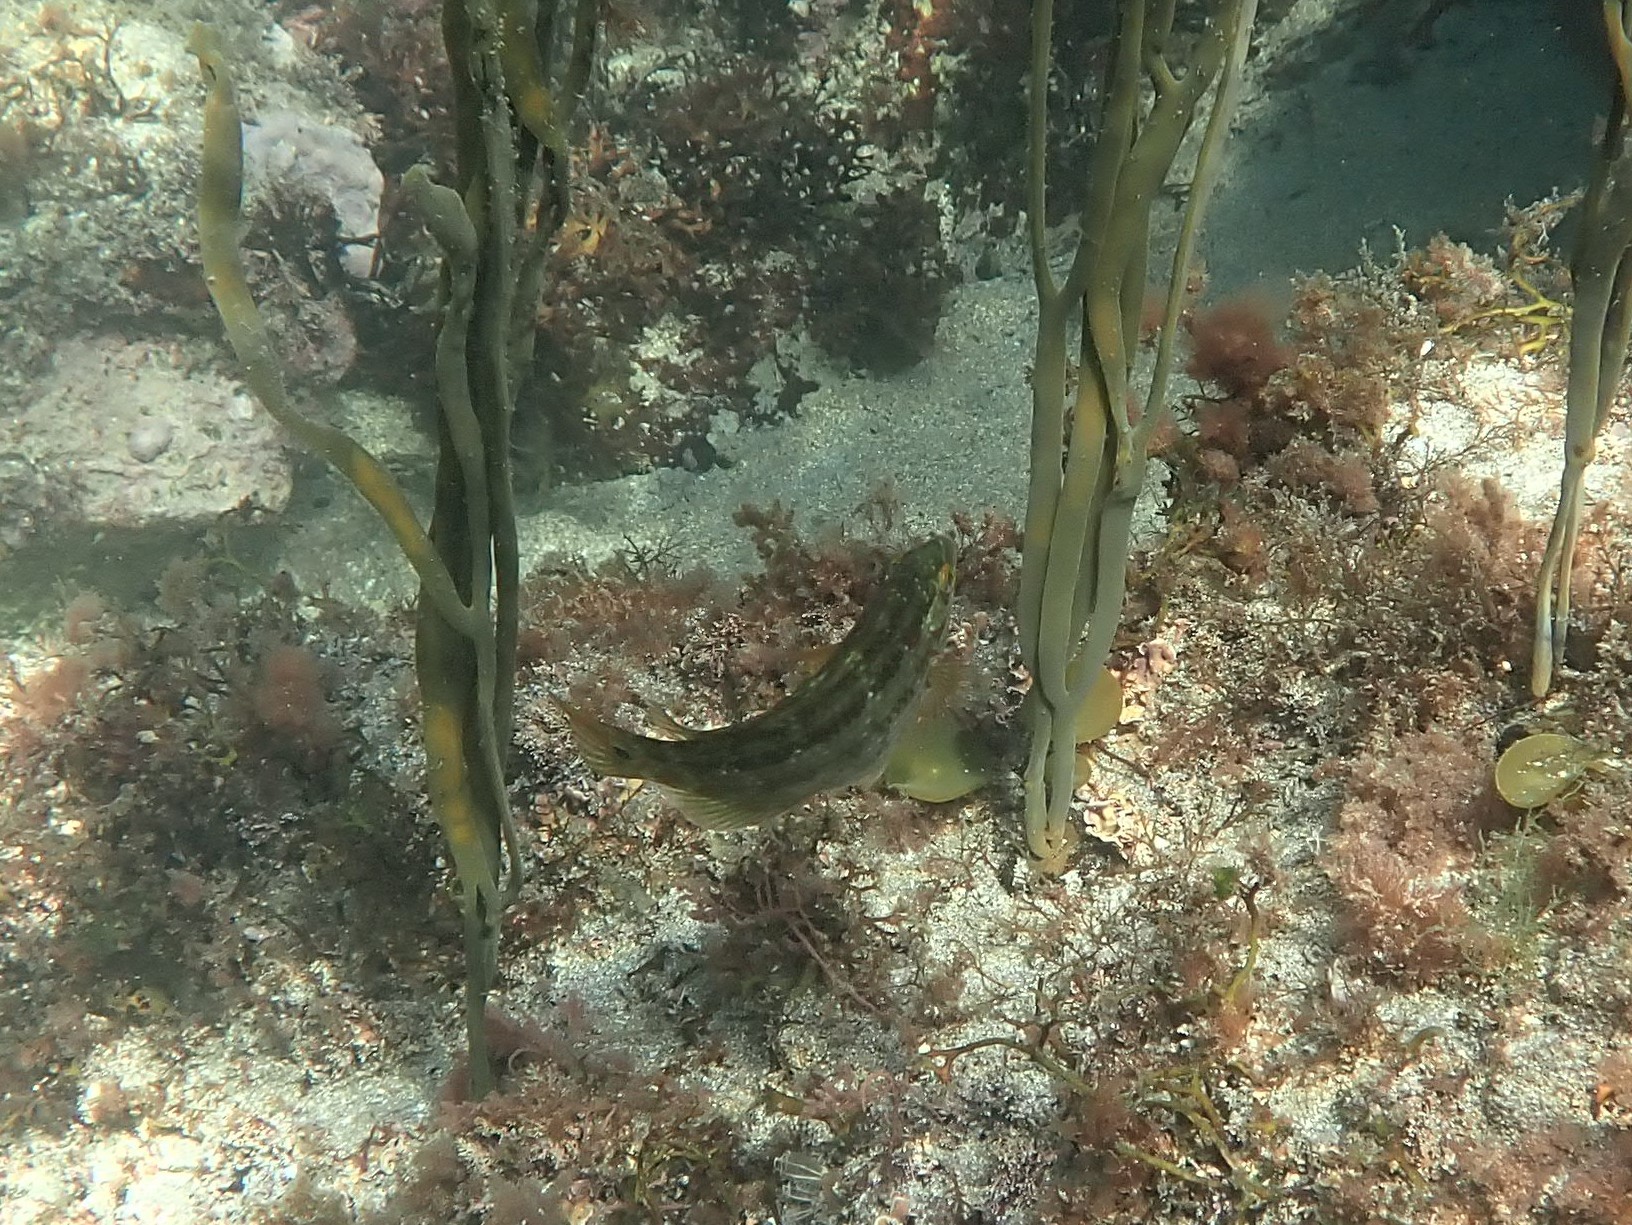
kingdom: Animalia
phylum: Chordata
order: Perciformes
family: Labridae
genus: Symphodus
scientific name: Symphodus melops
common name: Corkwing
